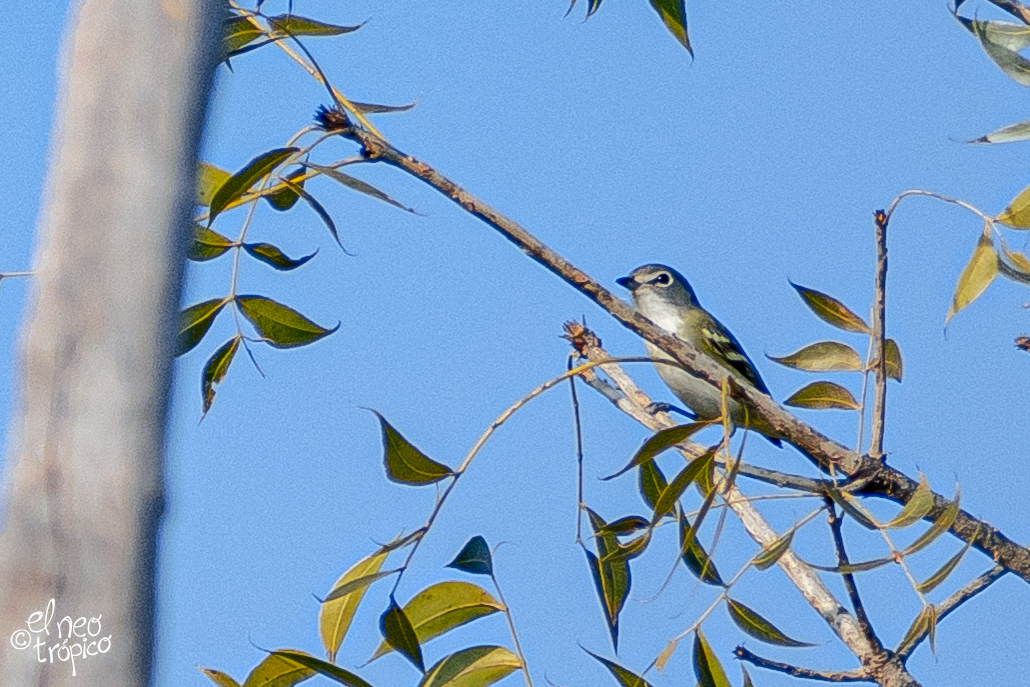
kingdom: Animalia
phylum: Chordata
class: Aves
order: Passeriformes
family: Vireonidae
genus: Vireo
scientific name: Vireo solitarius
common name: Blue-headed vireo
